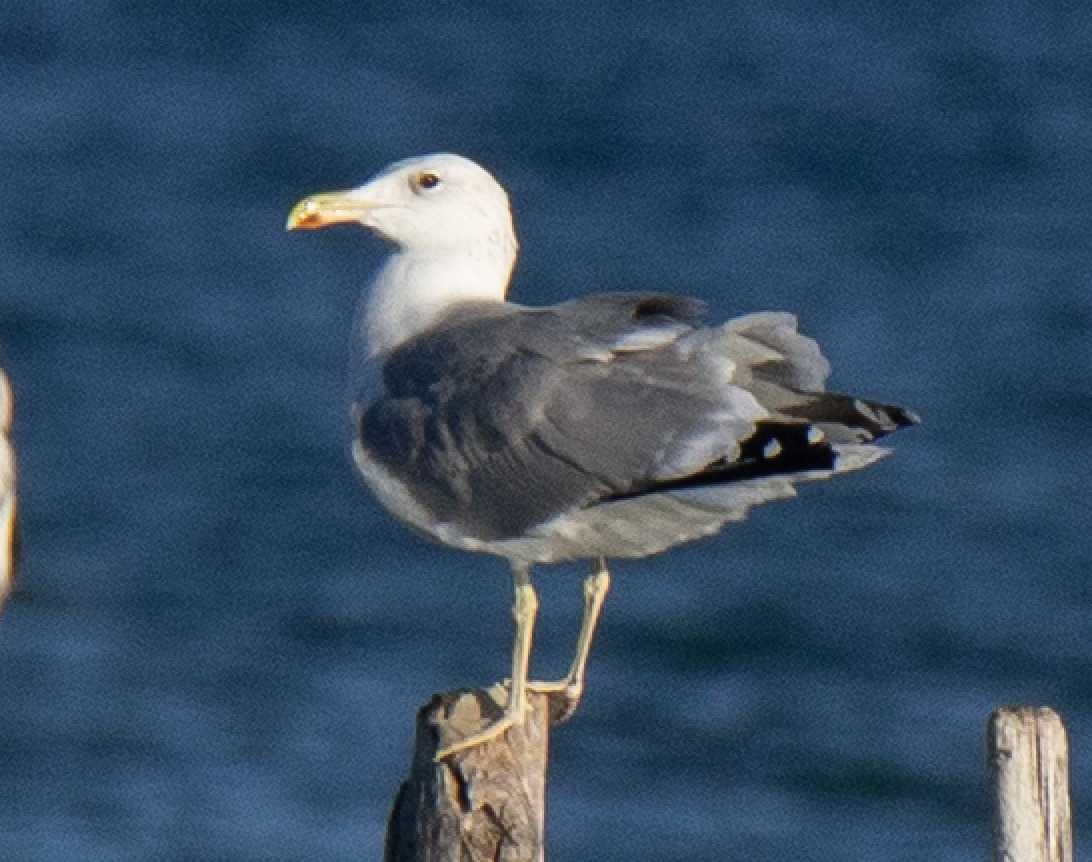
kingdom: Animalia
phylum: Chordata
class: Aves
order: Charadriiformes
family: Laridae
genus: Larus
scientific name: Larus cachinnans
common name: Caspian gull
